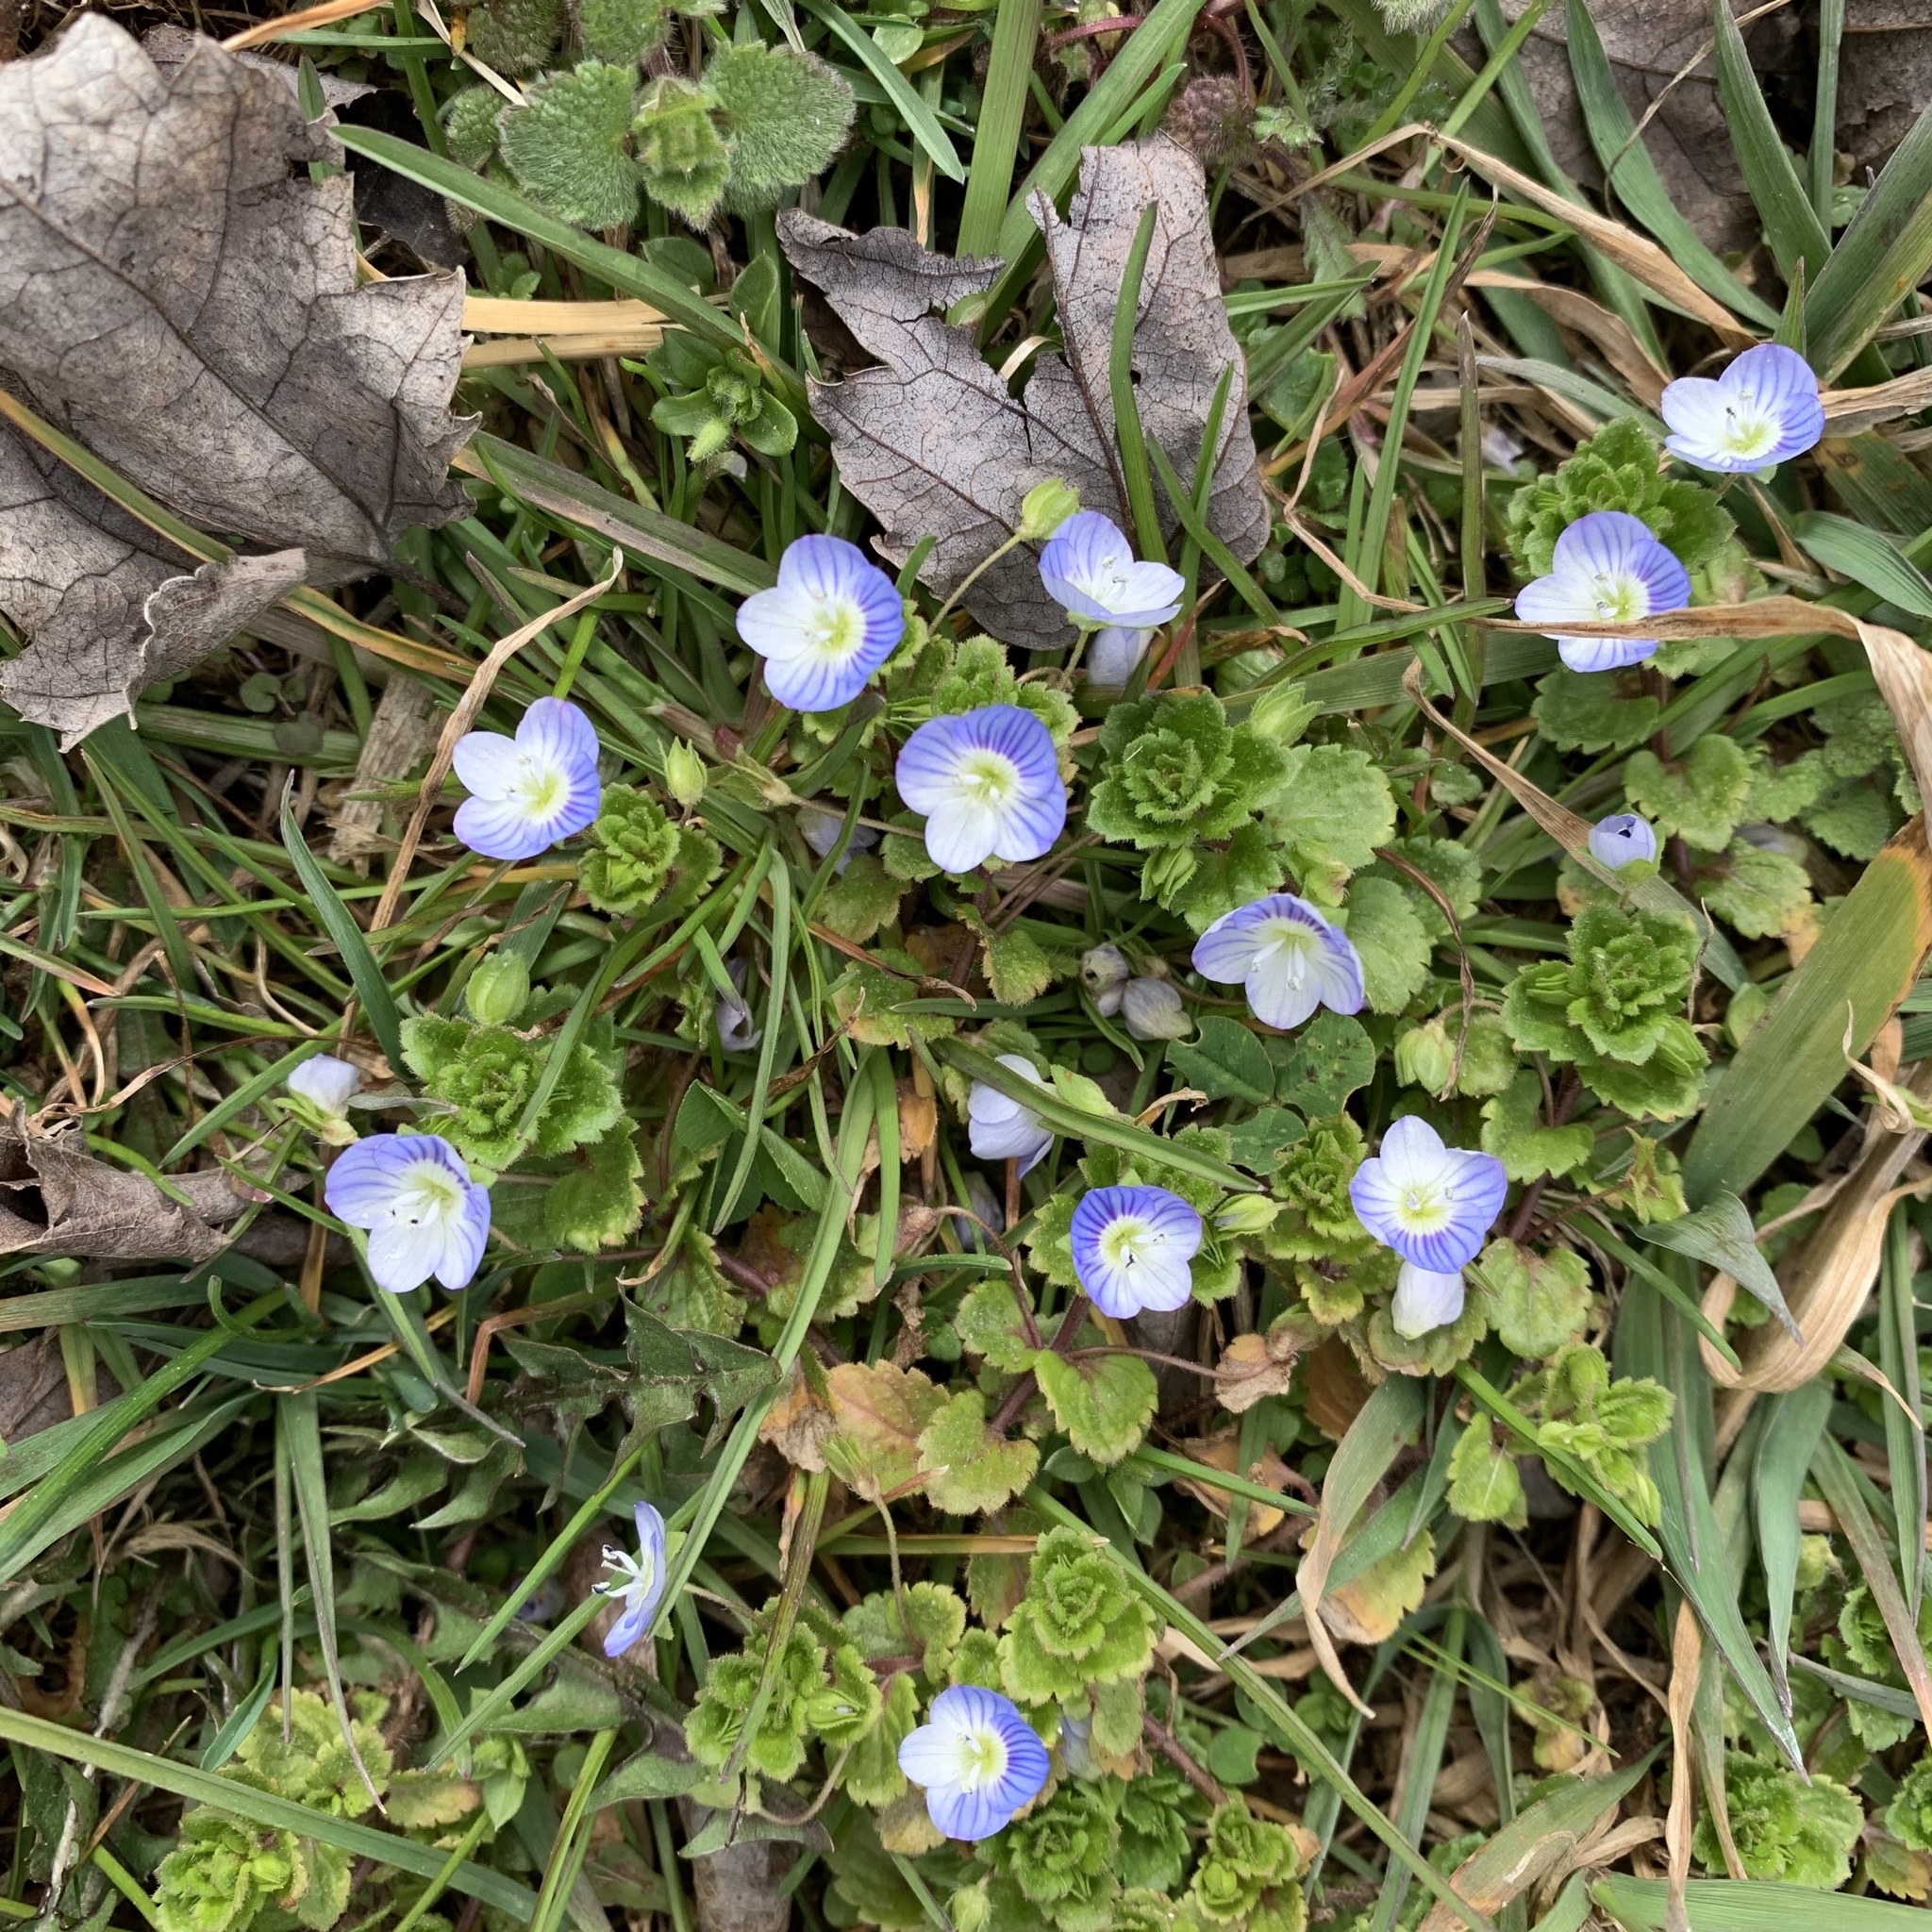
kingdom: Plantae
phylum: Tracheophyta
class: Magnoliopsida
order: Lamiales
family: Plantaginaceae
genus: Veronica
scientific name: Veronica persica
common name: Common field-speedwell
